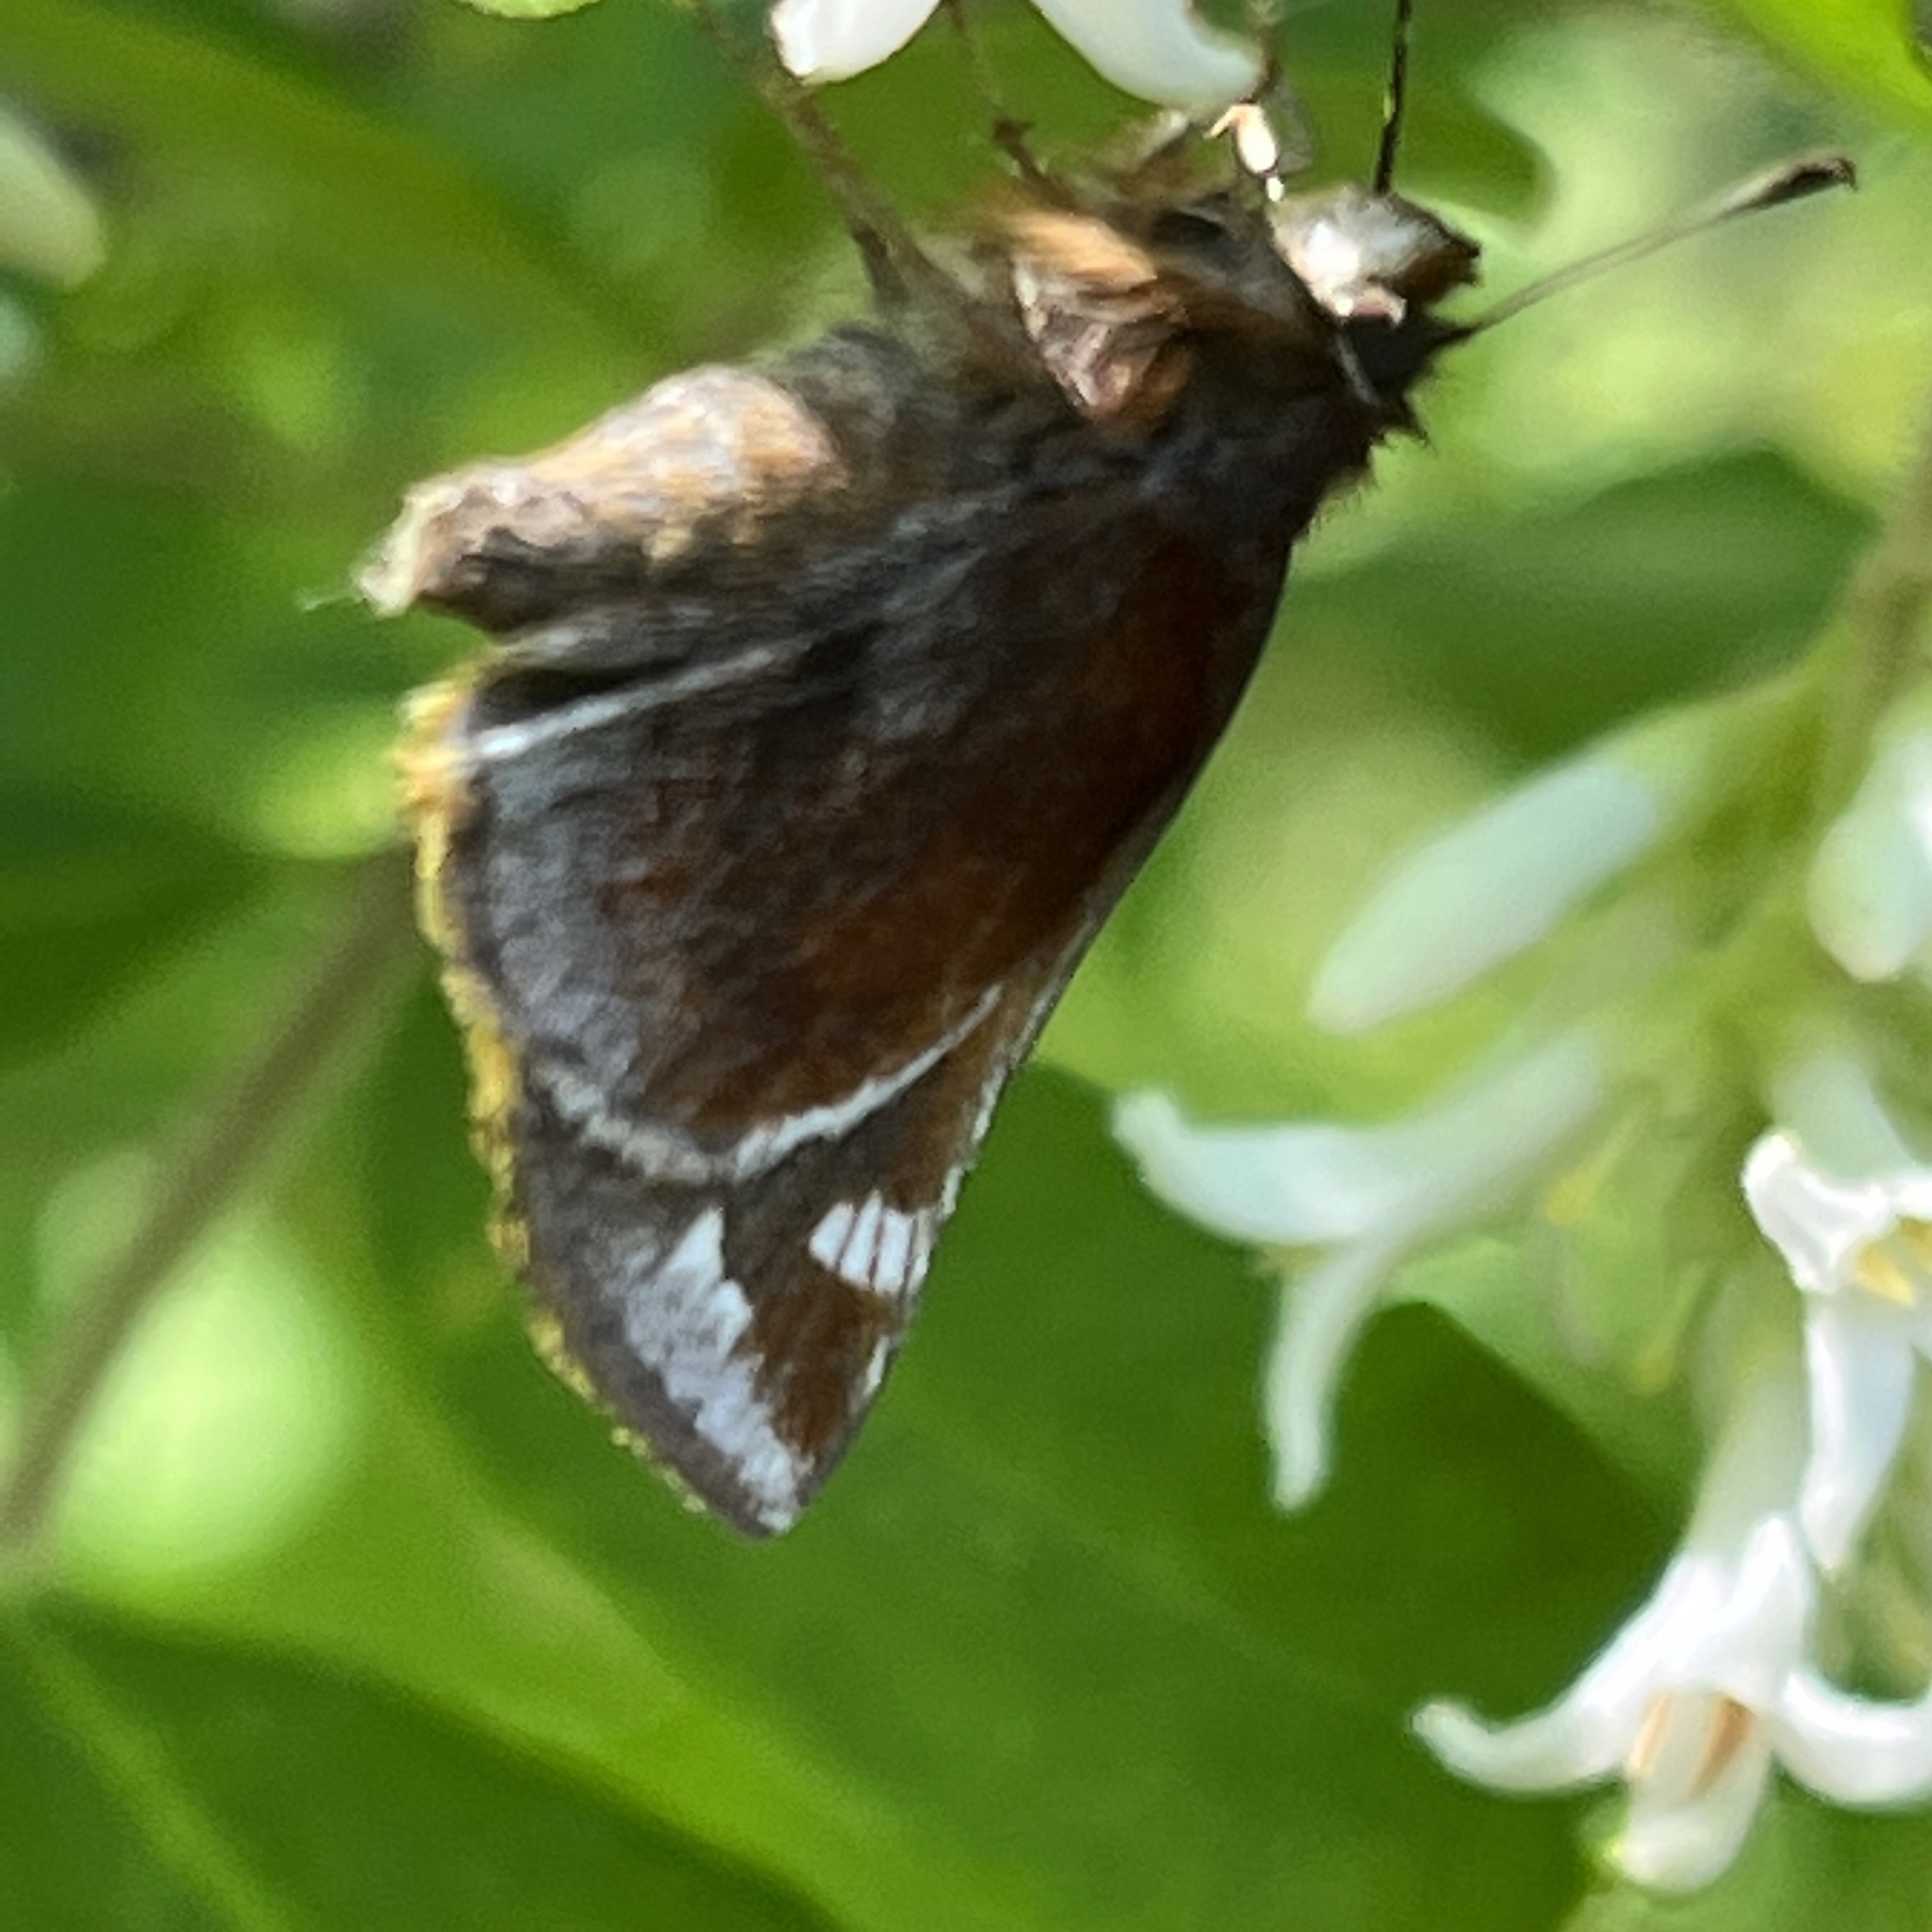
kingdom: Animalia
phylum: Arthropoda
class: Insecta
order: Lepidoptera
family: Hesperiidae
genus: Lon
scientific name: Lon zabulon
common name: Zabulon skipper
